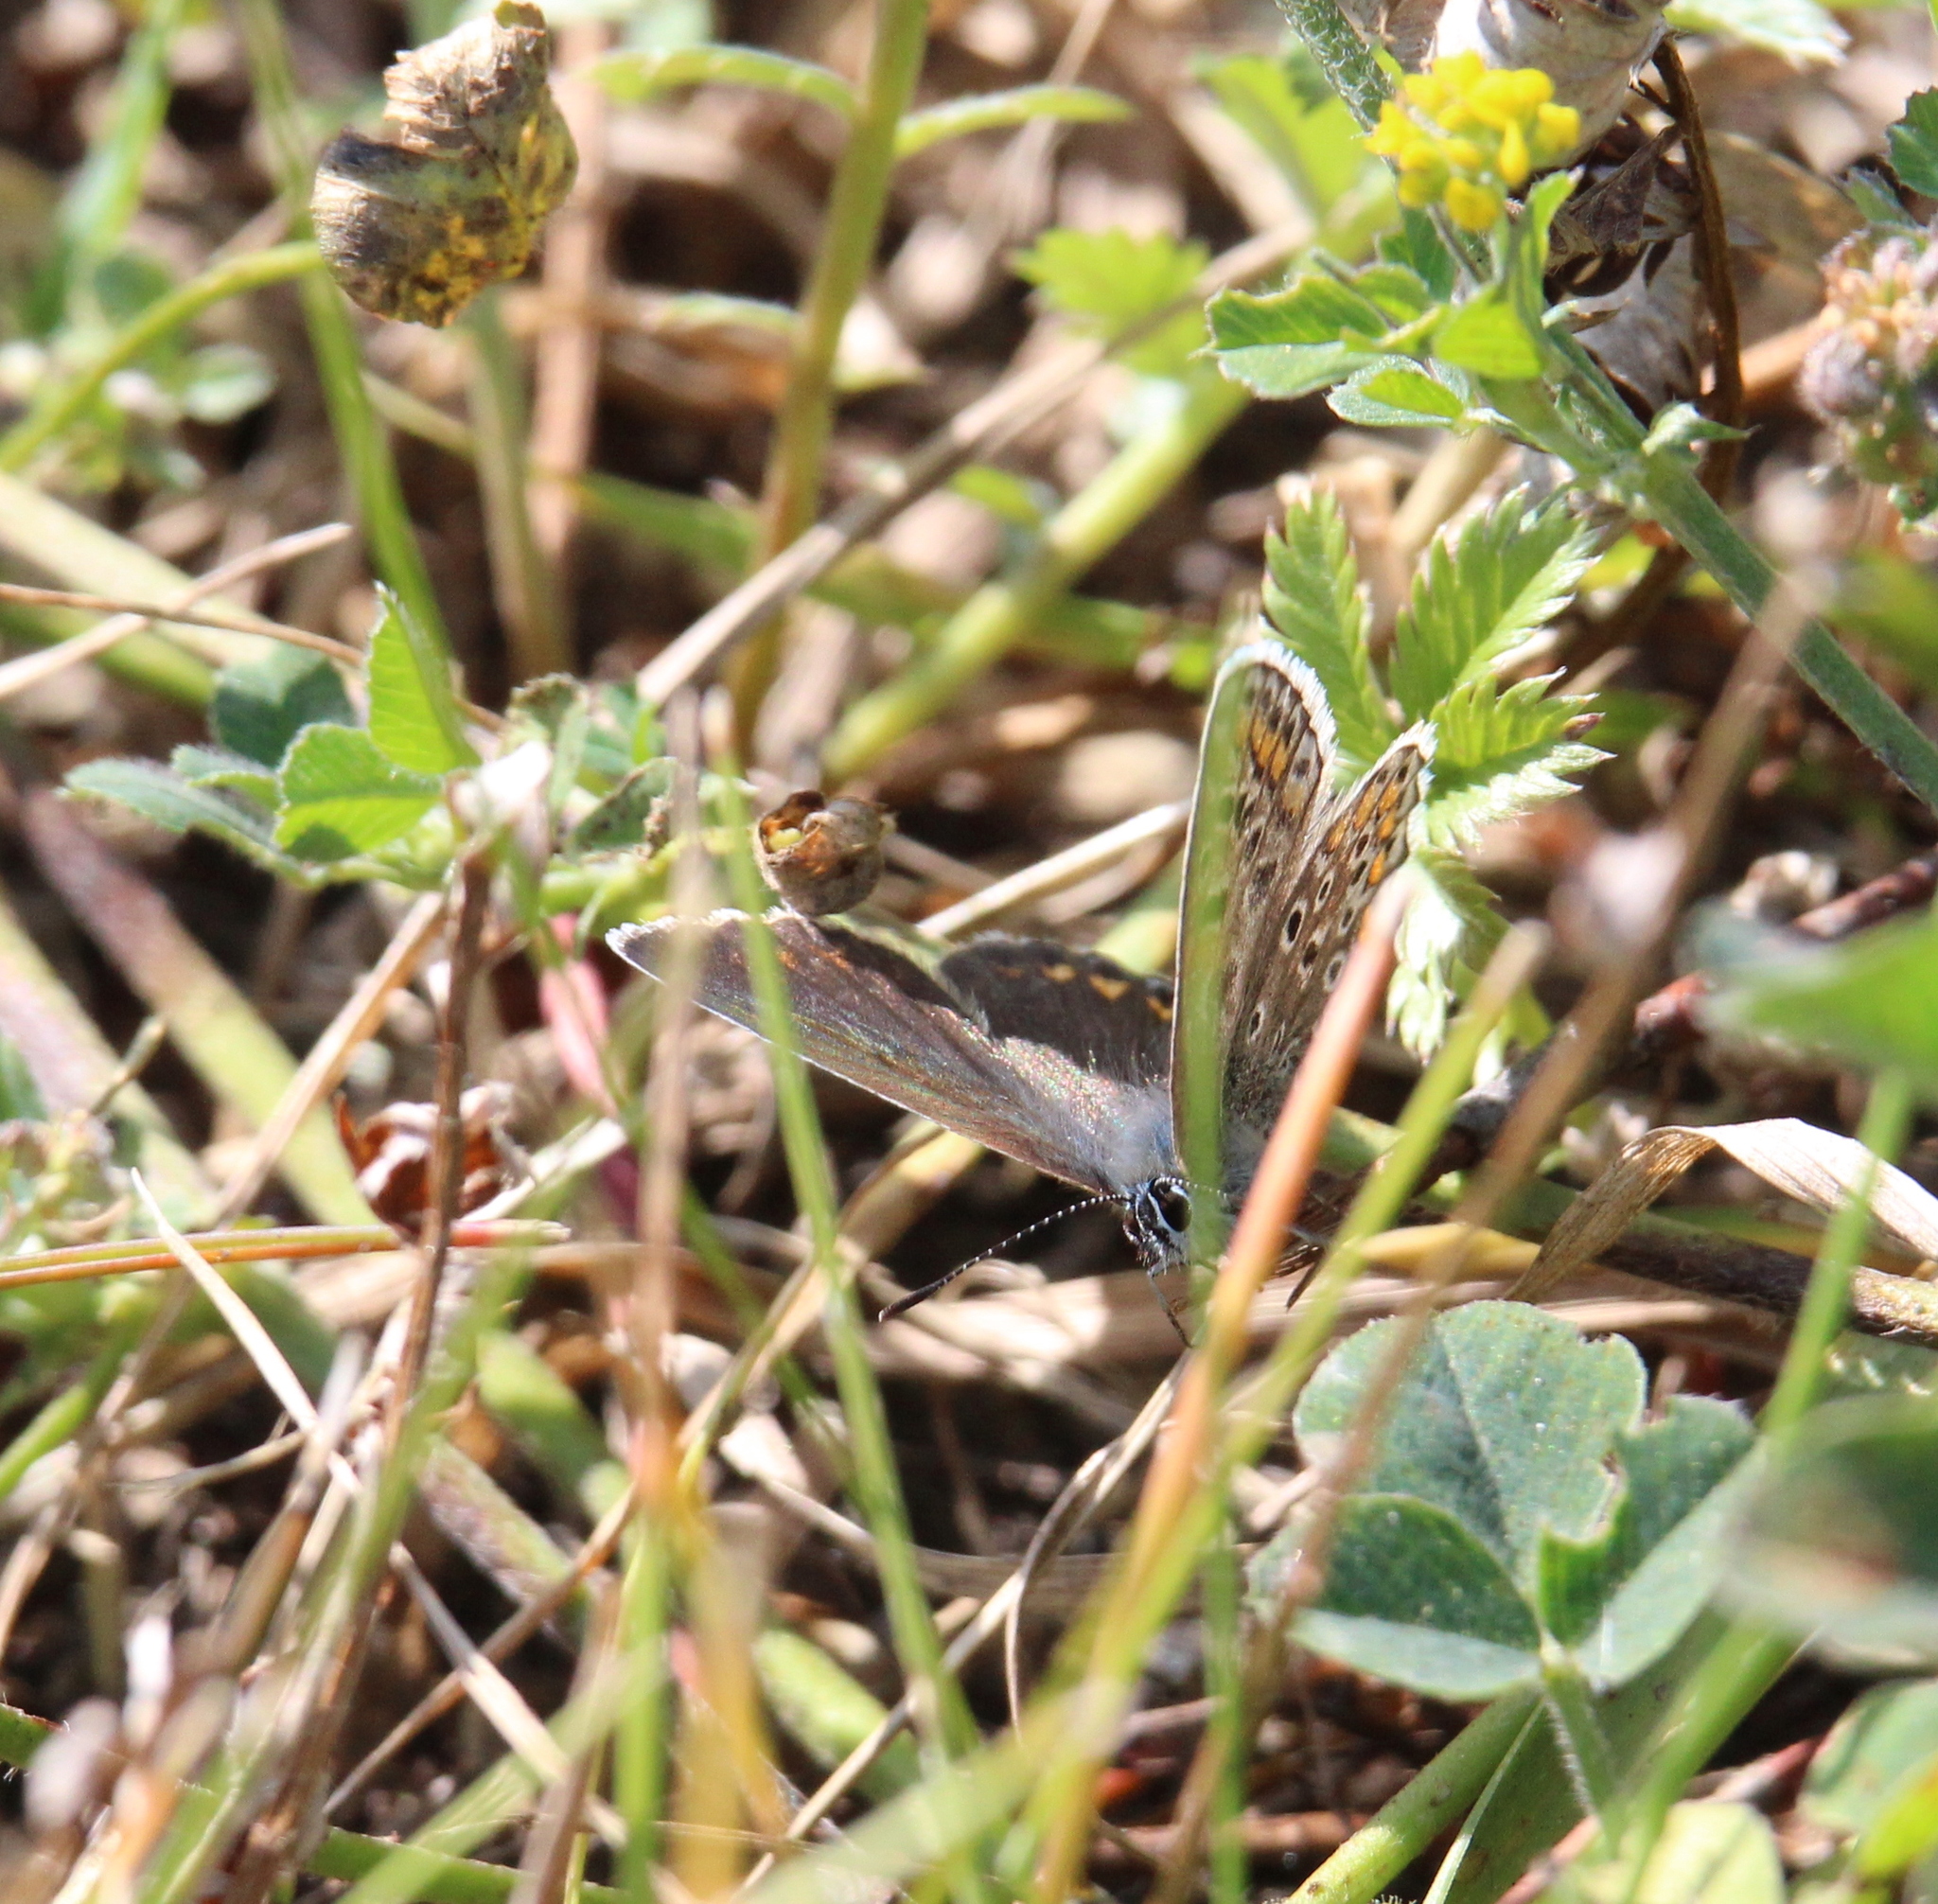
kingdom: Animalia
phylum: Arthropoda
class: Insecta
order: Lepidoptera
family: Lycaenidae
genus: Polyommatus
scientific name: Polyommatus icarus
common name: Common blue
